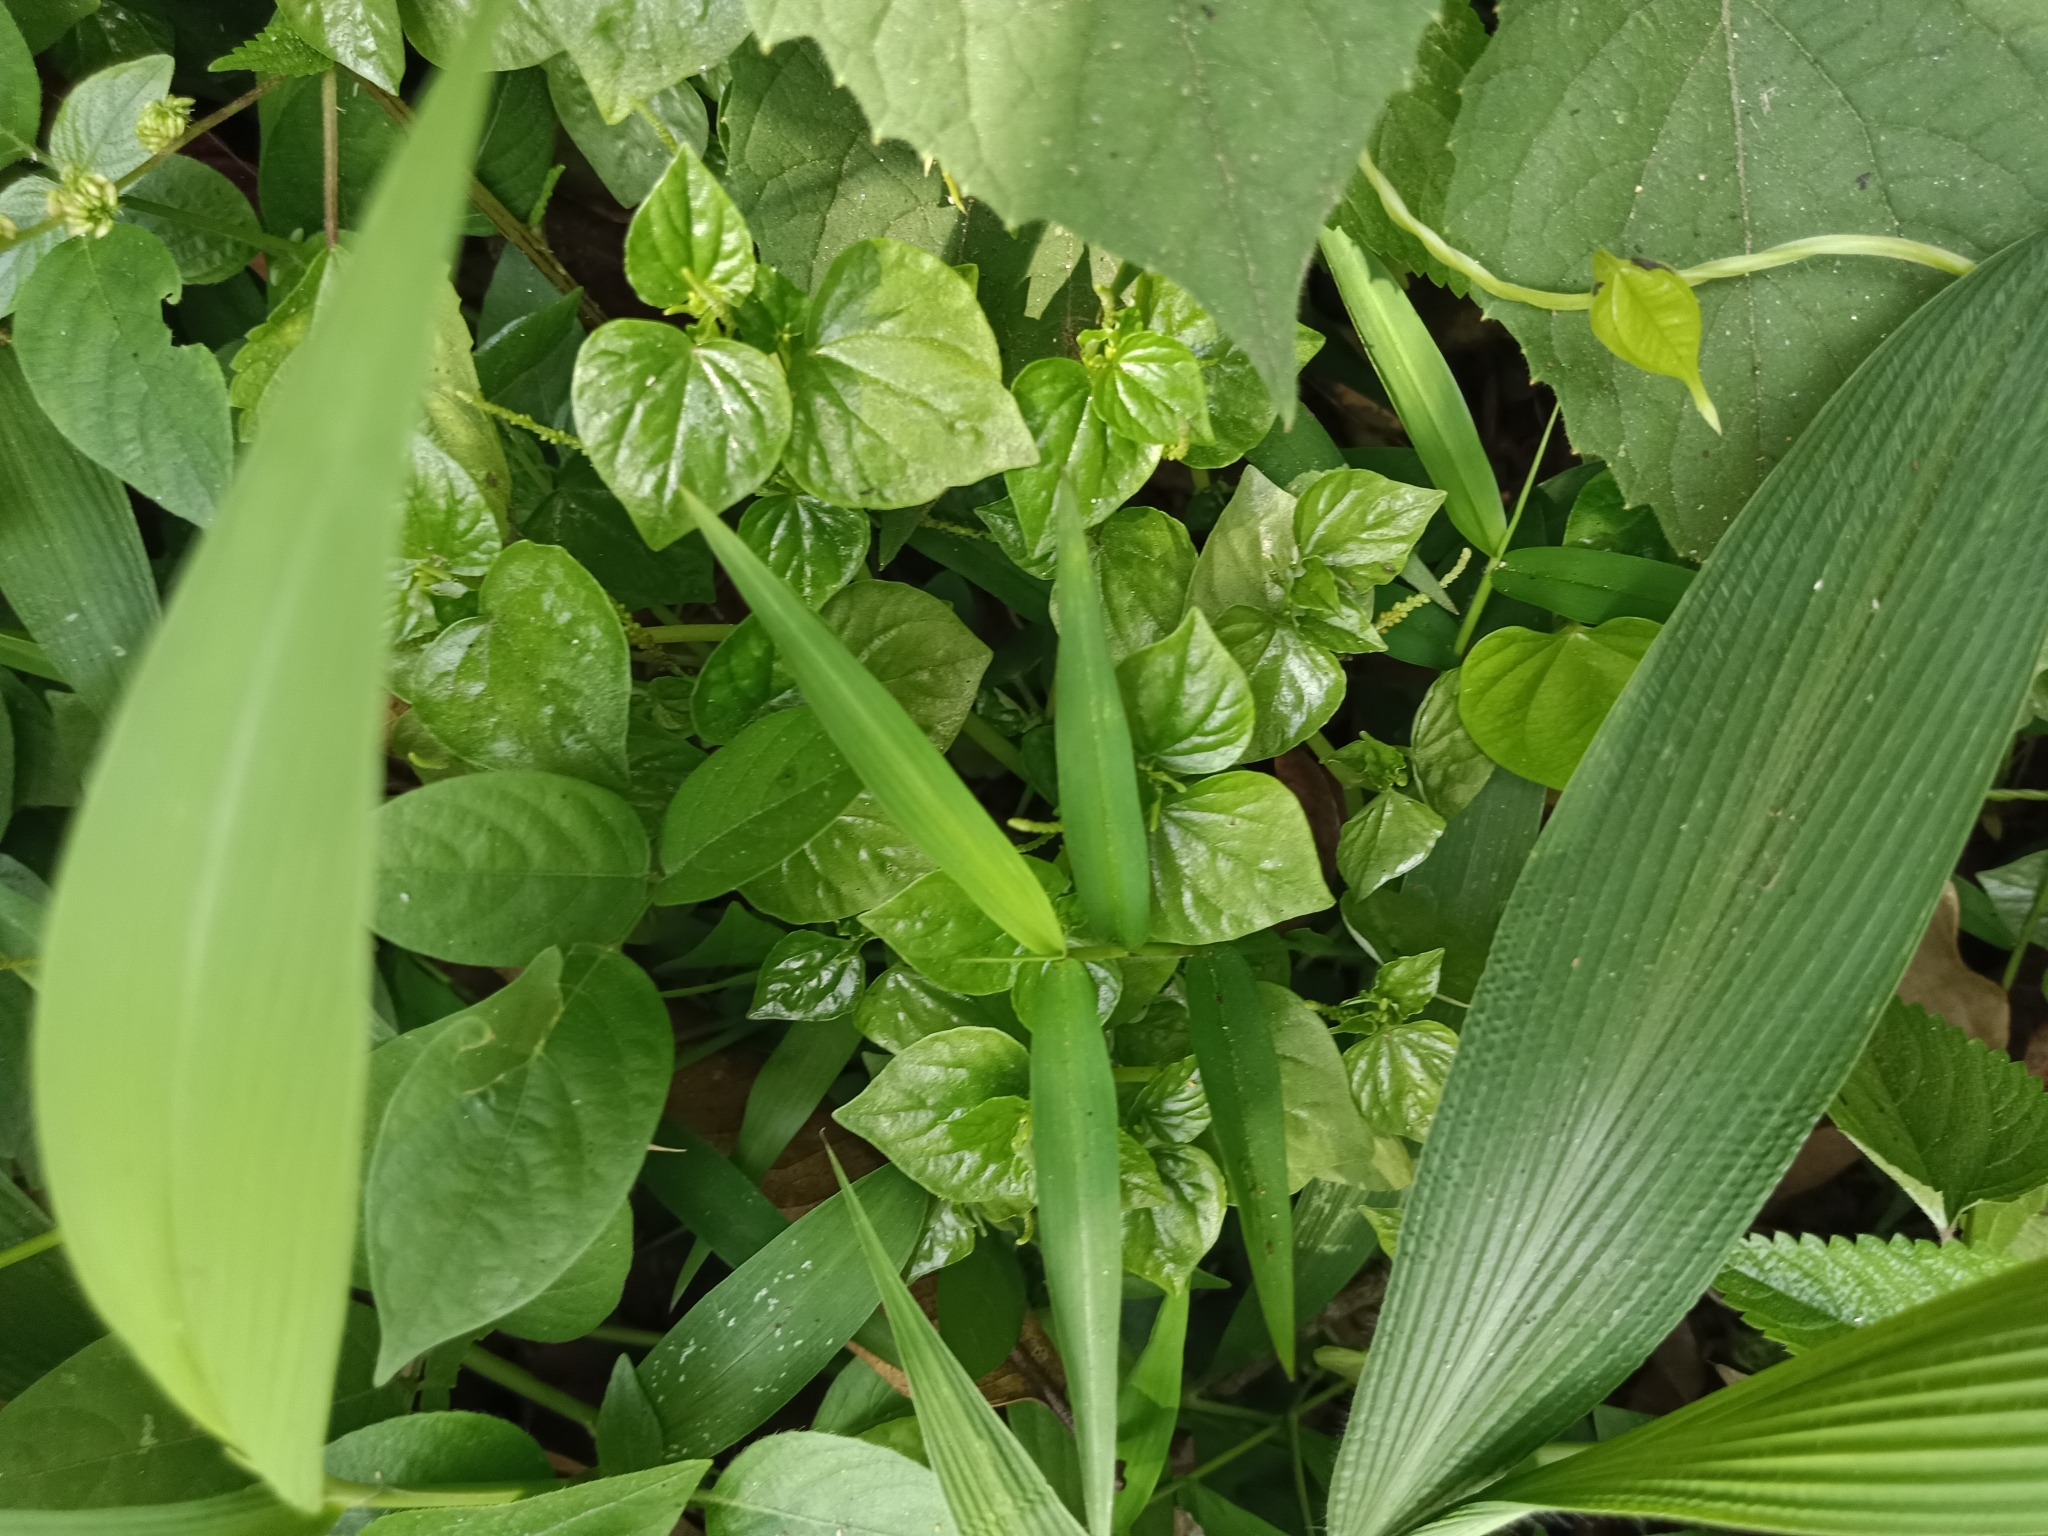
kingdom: Plantae
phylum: Tracheophyta
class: Magnoliopsida
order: Piperales
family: Piperaceae
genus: Peperomia
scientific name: Peperomia pellucida
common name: Man to man
